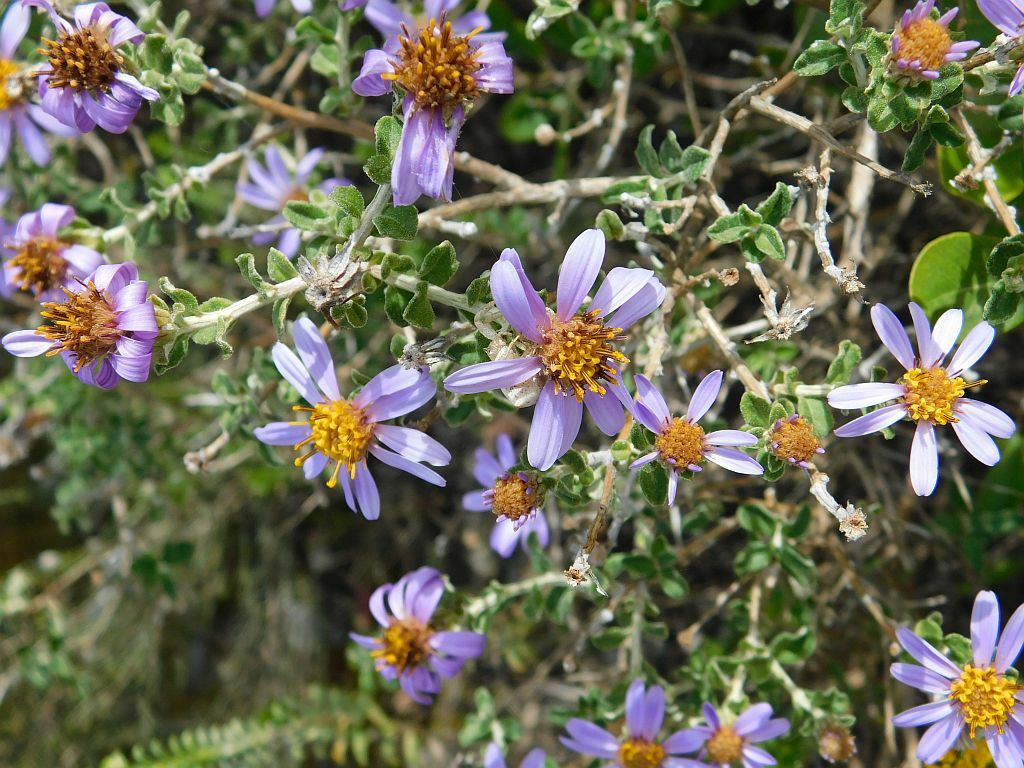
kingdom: Plantae
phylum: Tracheophyta
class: Magnoliopsida
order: Asterales
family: Asteraceae
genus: Printzia
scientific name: Printzia polifolia
